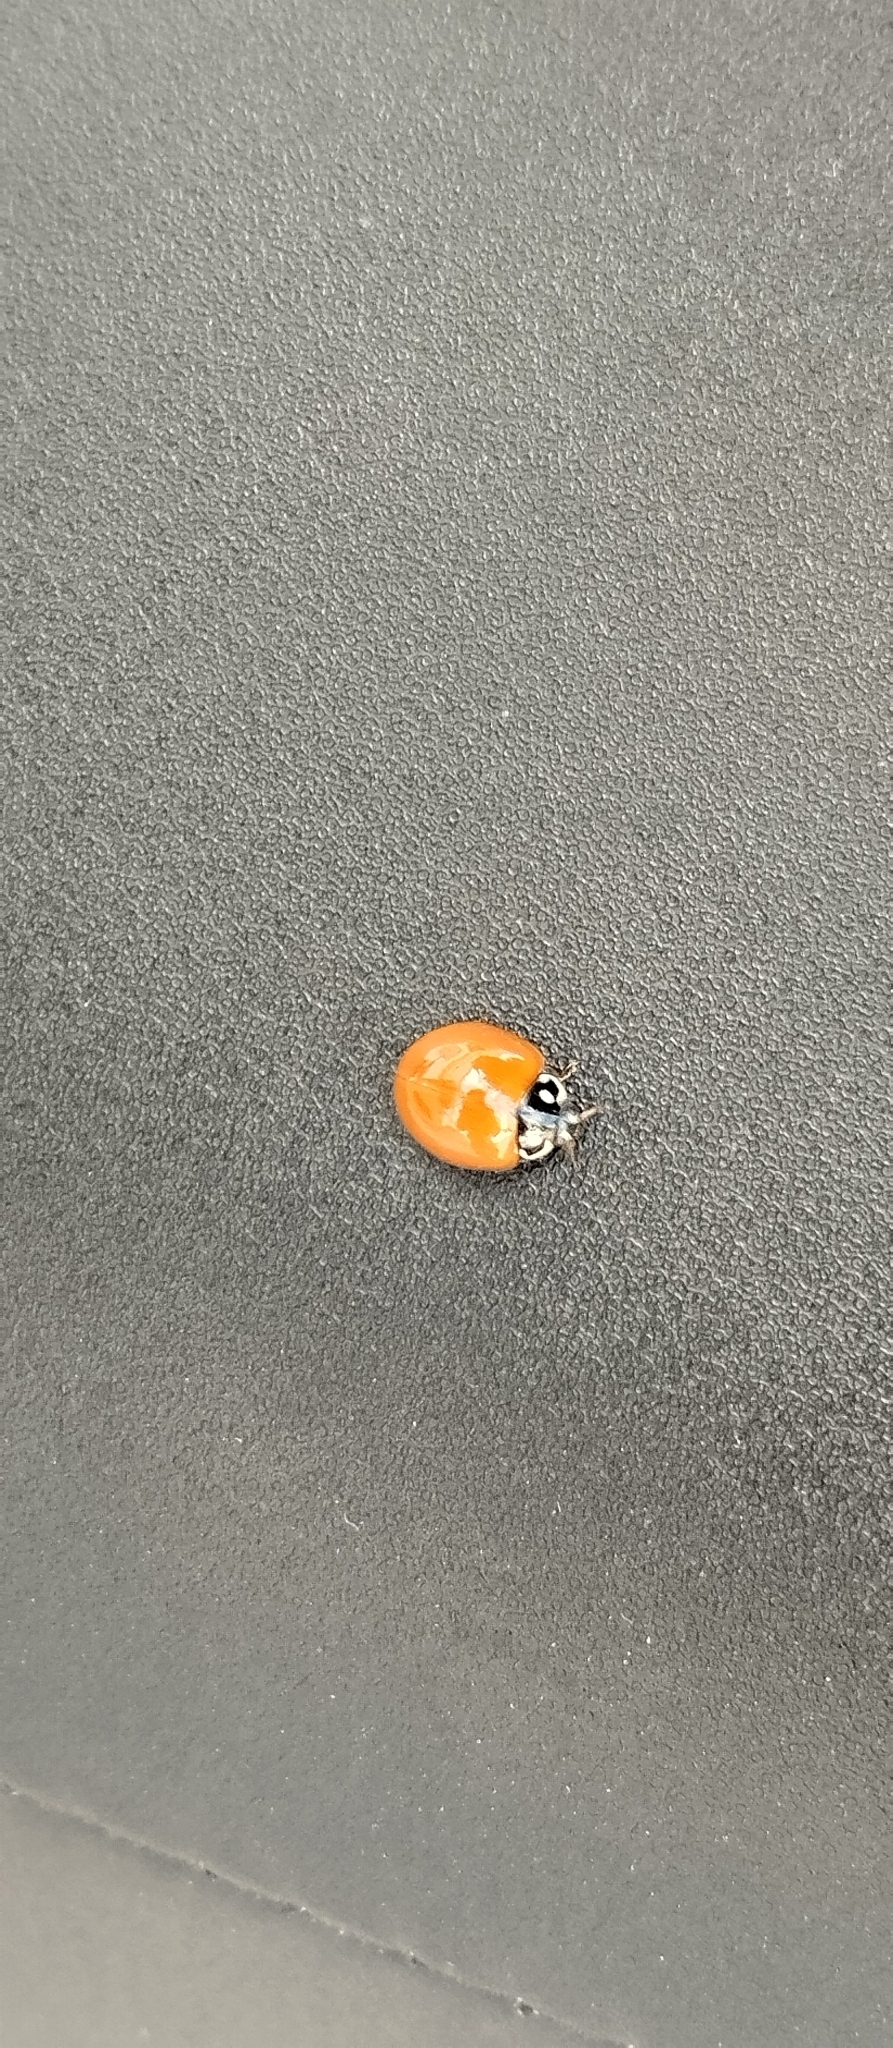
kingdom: Animalia
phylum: Arthropoda
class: Insecta
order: Coleoptera
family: Coccinellidae
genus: Cycloneda
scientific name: Cycloneda sanguinea
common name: Ladybird beetle
